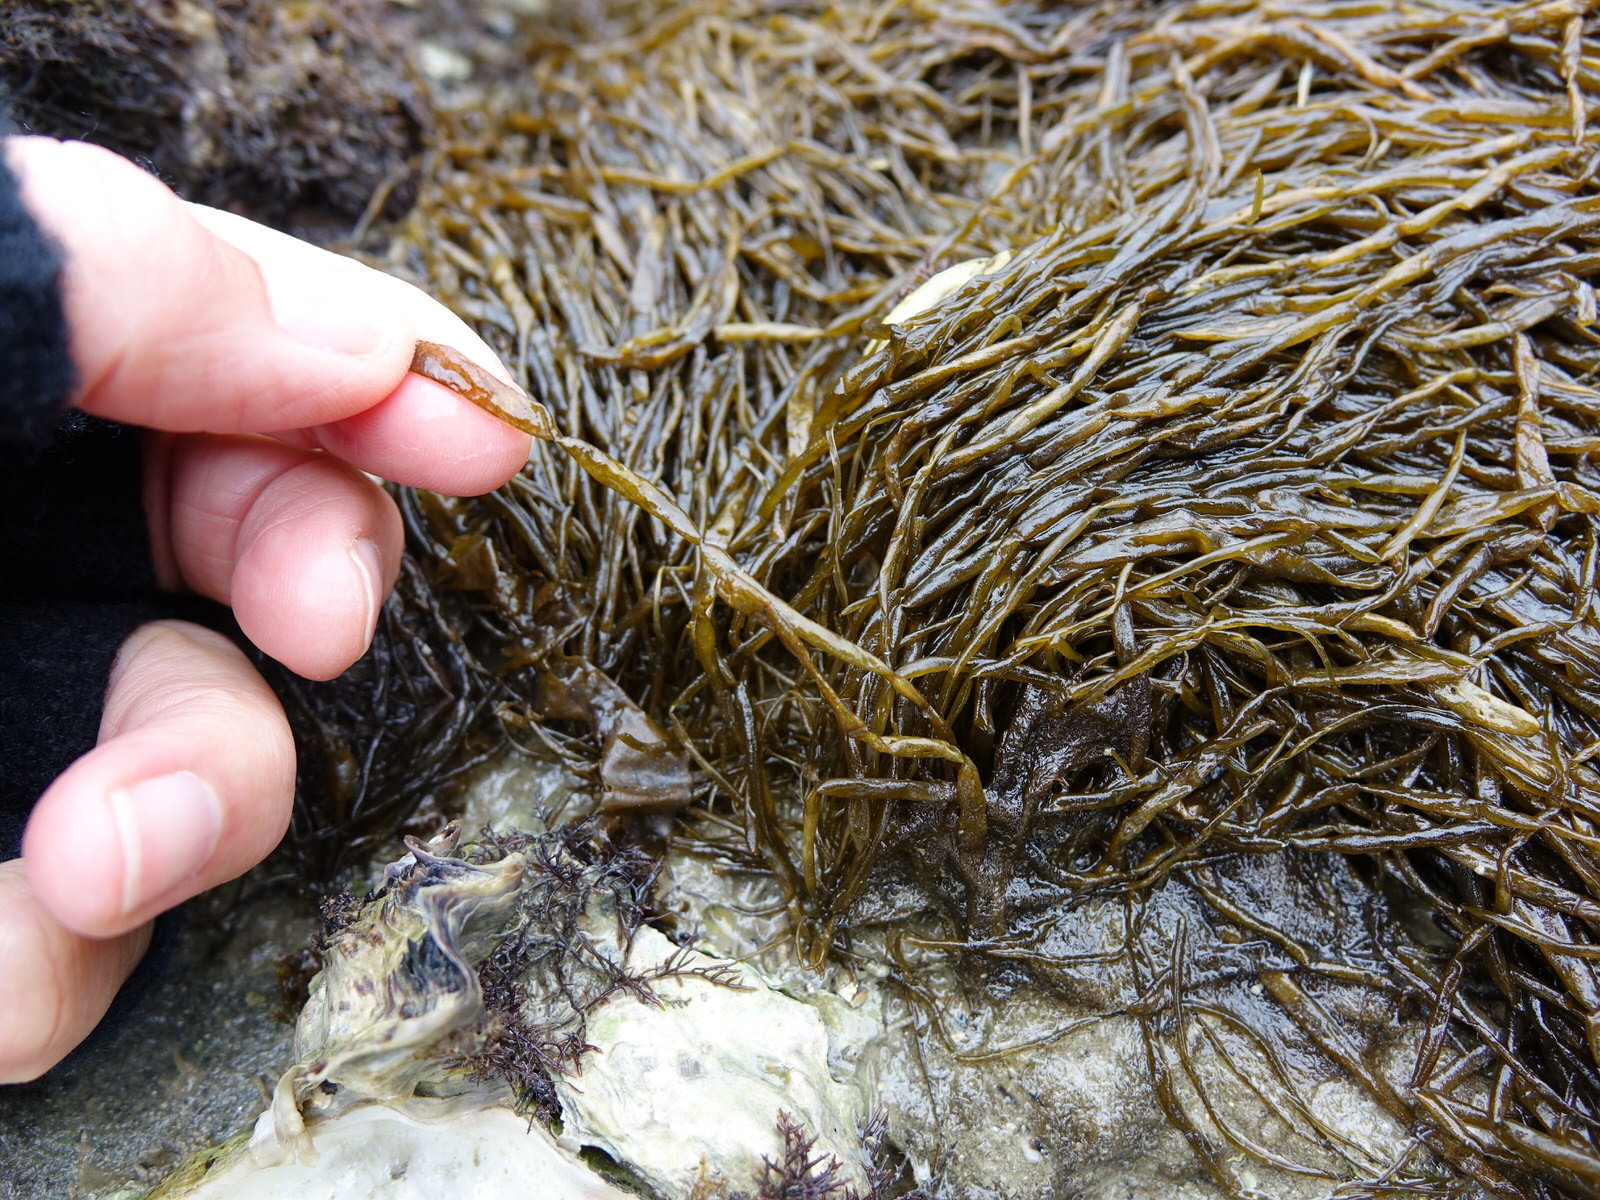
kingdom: Chromista
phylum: Ochrophyta
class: Phaeophyceae
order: Scytosiphonales
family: Scytosiphonaceae
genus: Scytosiphon
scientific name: Scytosiphon lomentaria
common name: Beanweed
